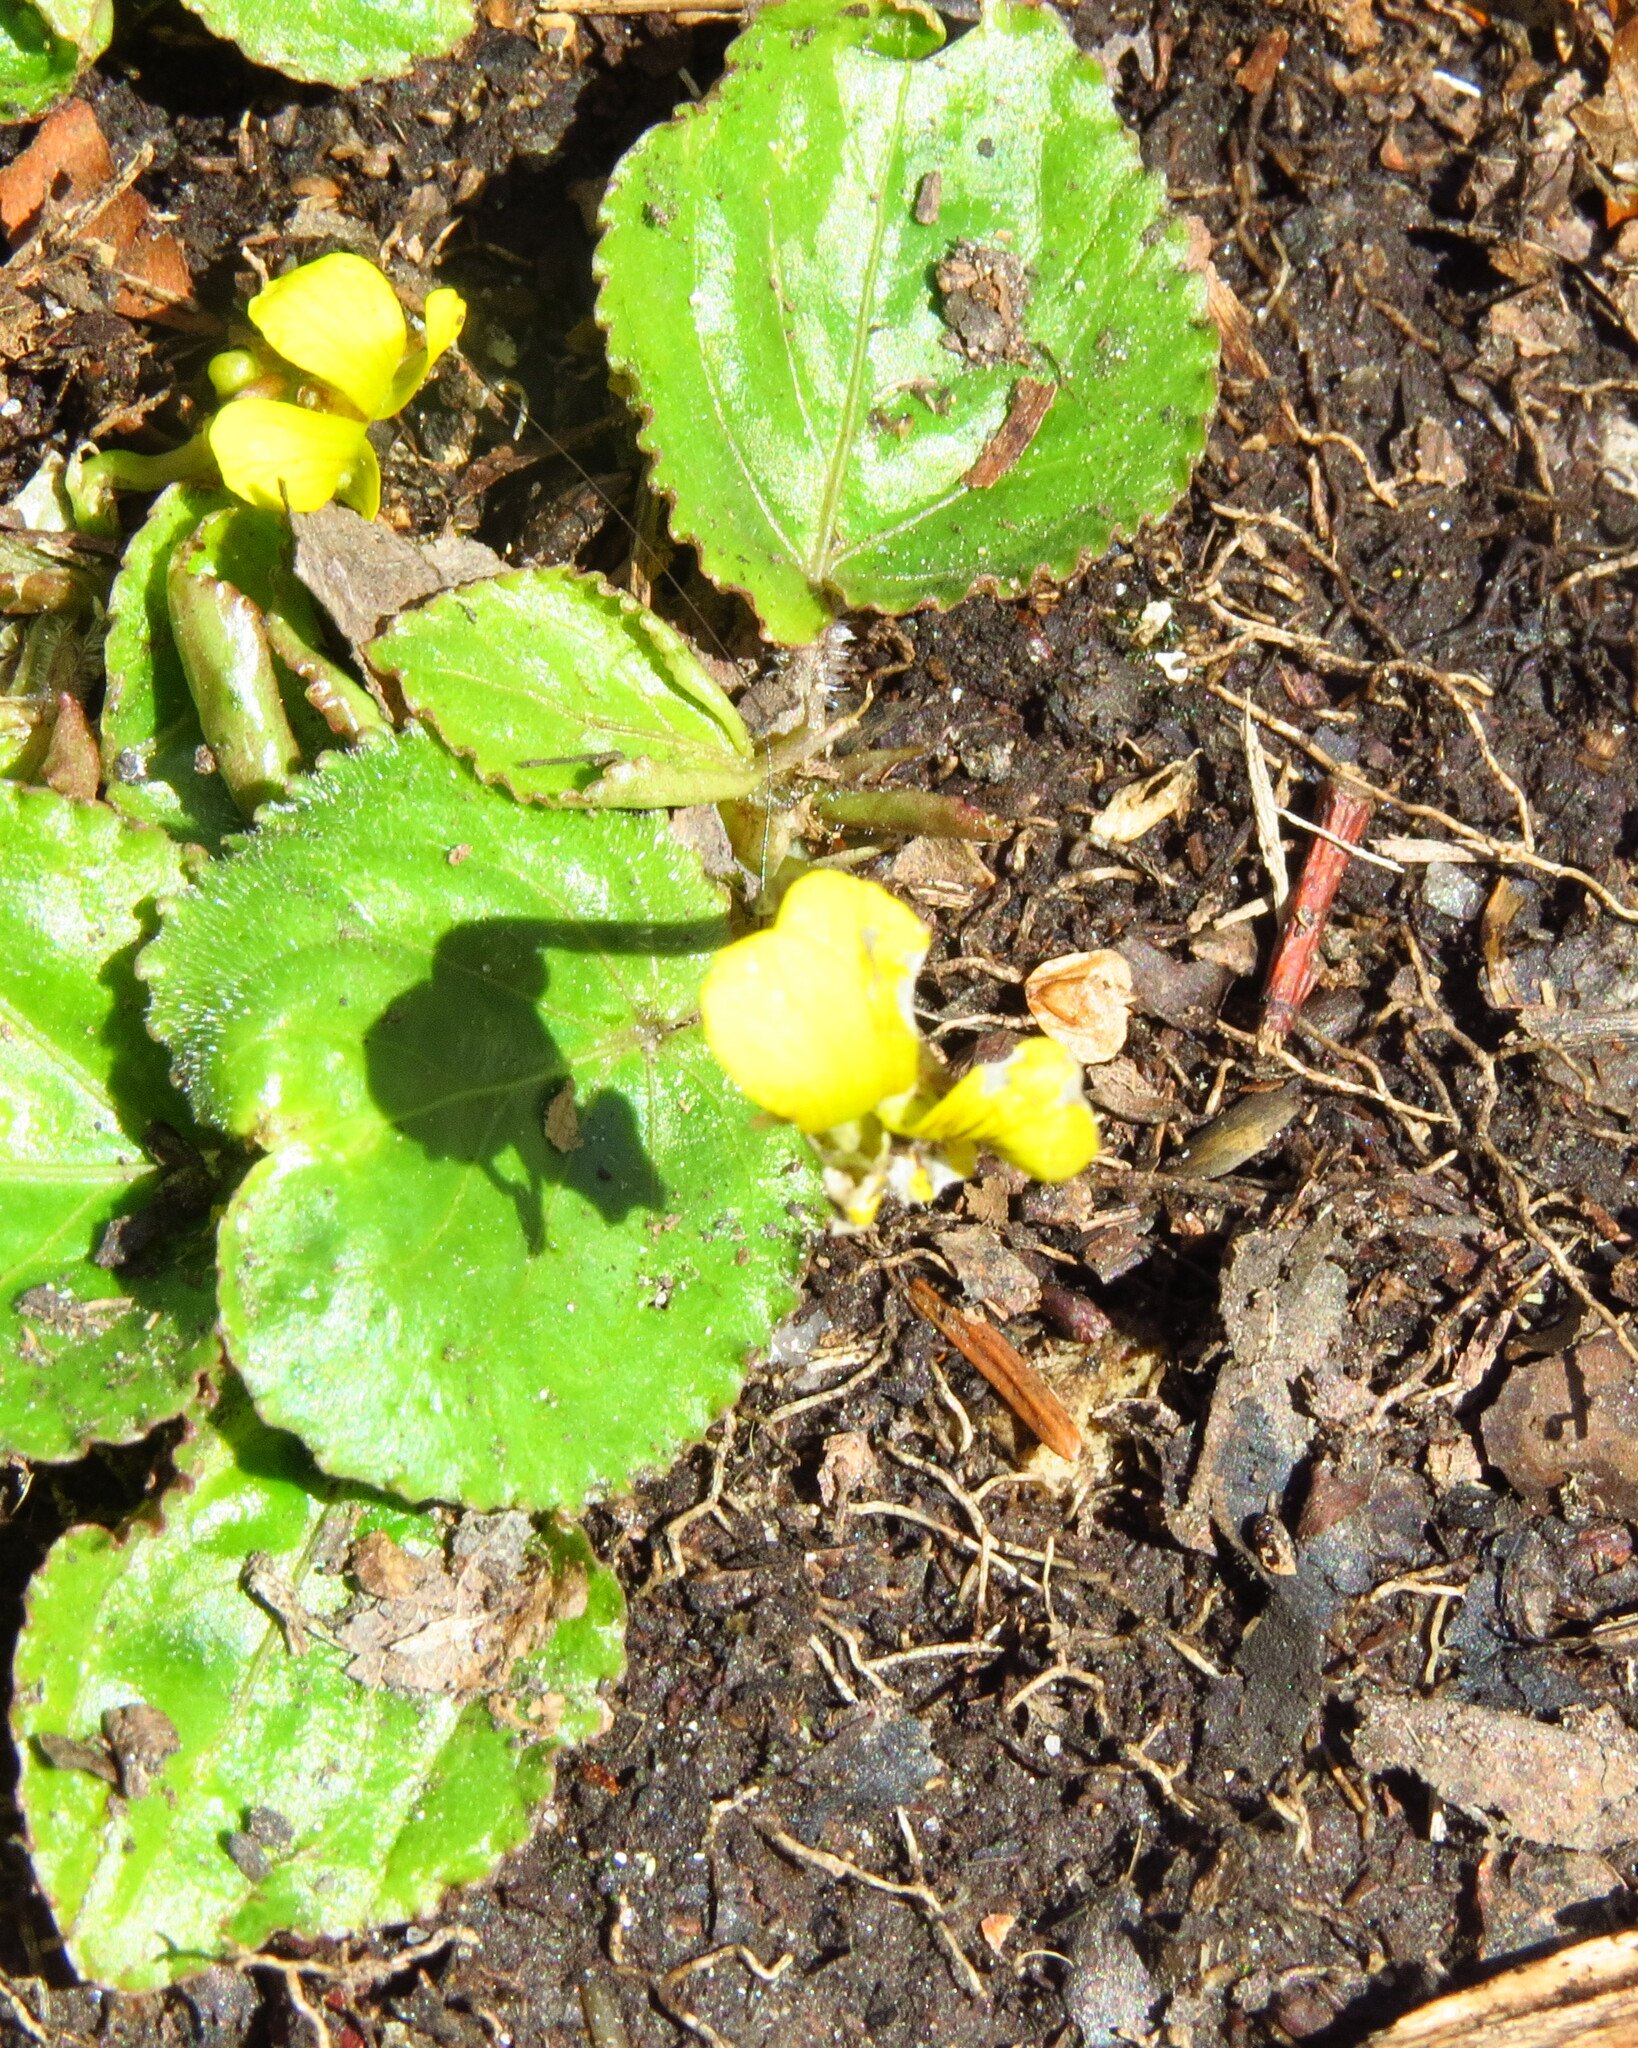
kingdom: Plantae
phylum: Tracheophyta
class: Magnoliopsida
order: Malpighiales
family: Violaceae
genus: Viola
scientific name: Viola rotundifolia
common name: Early yellow violet
